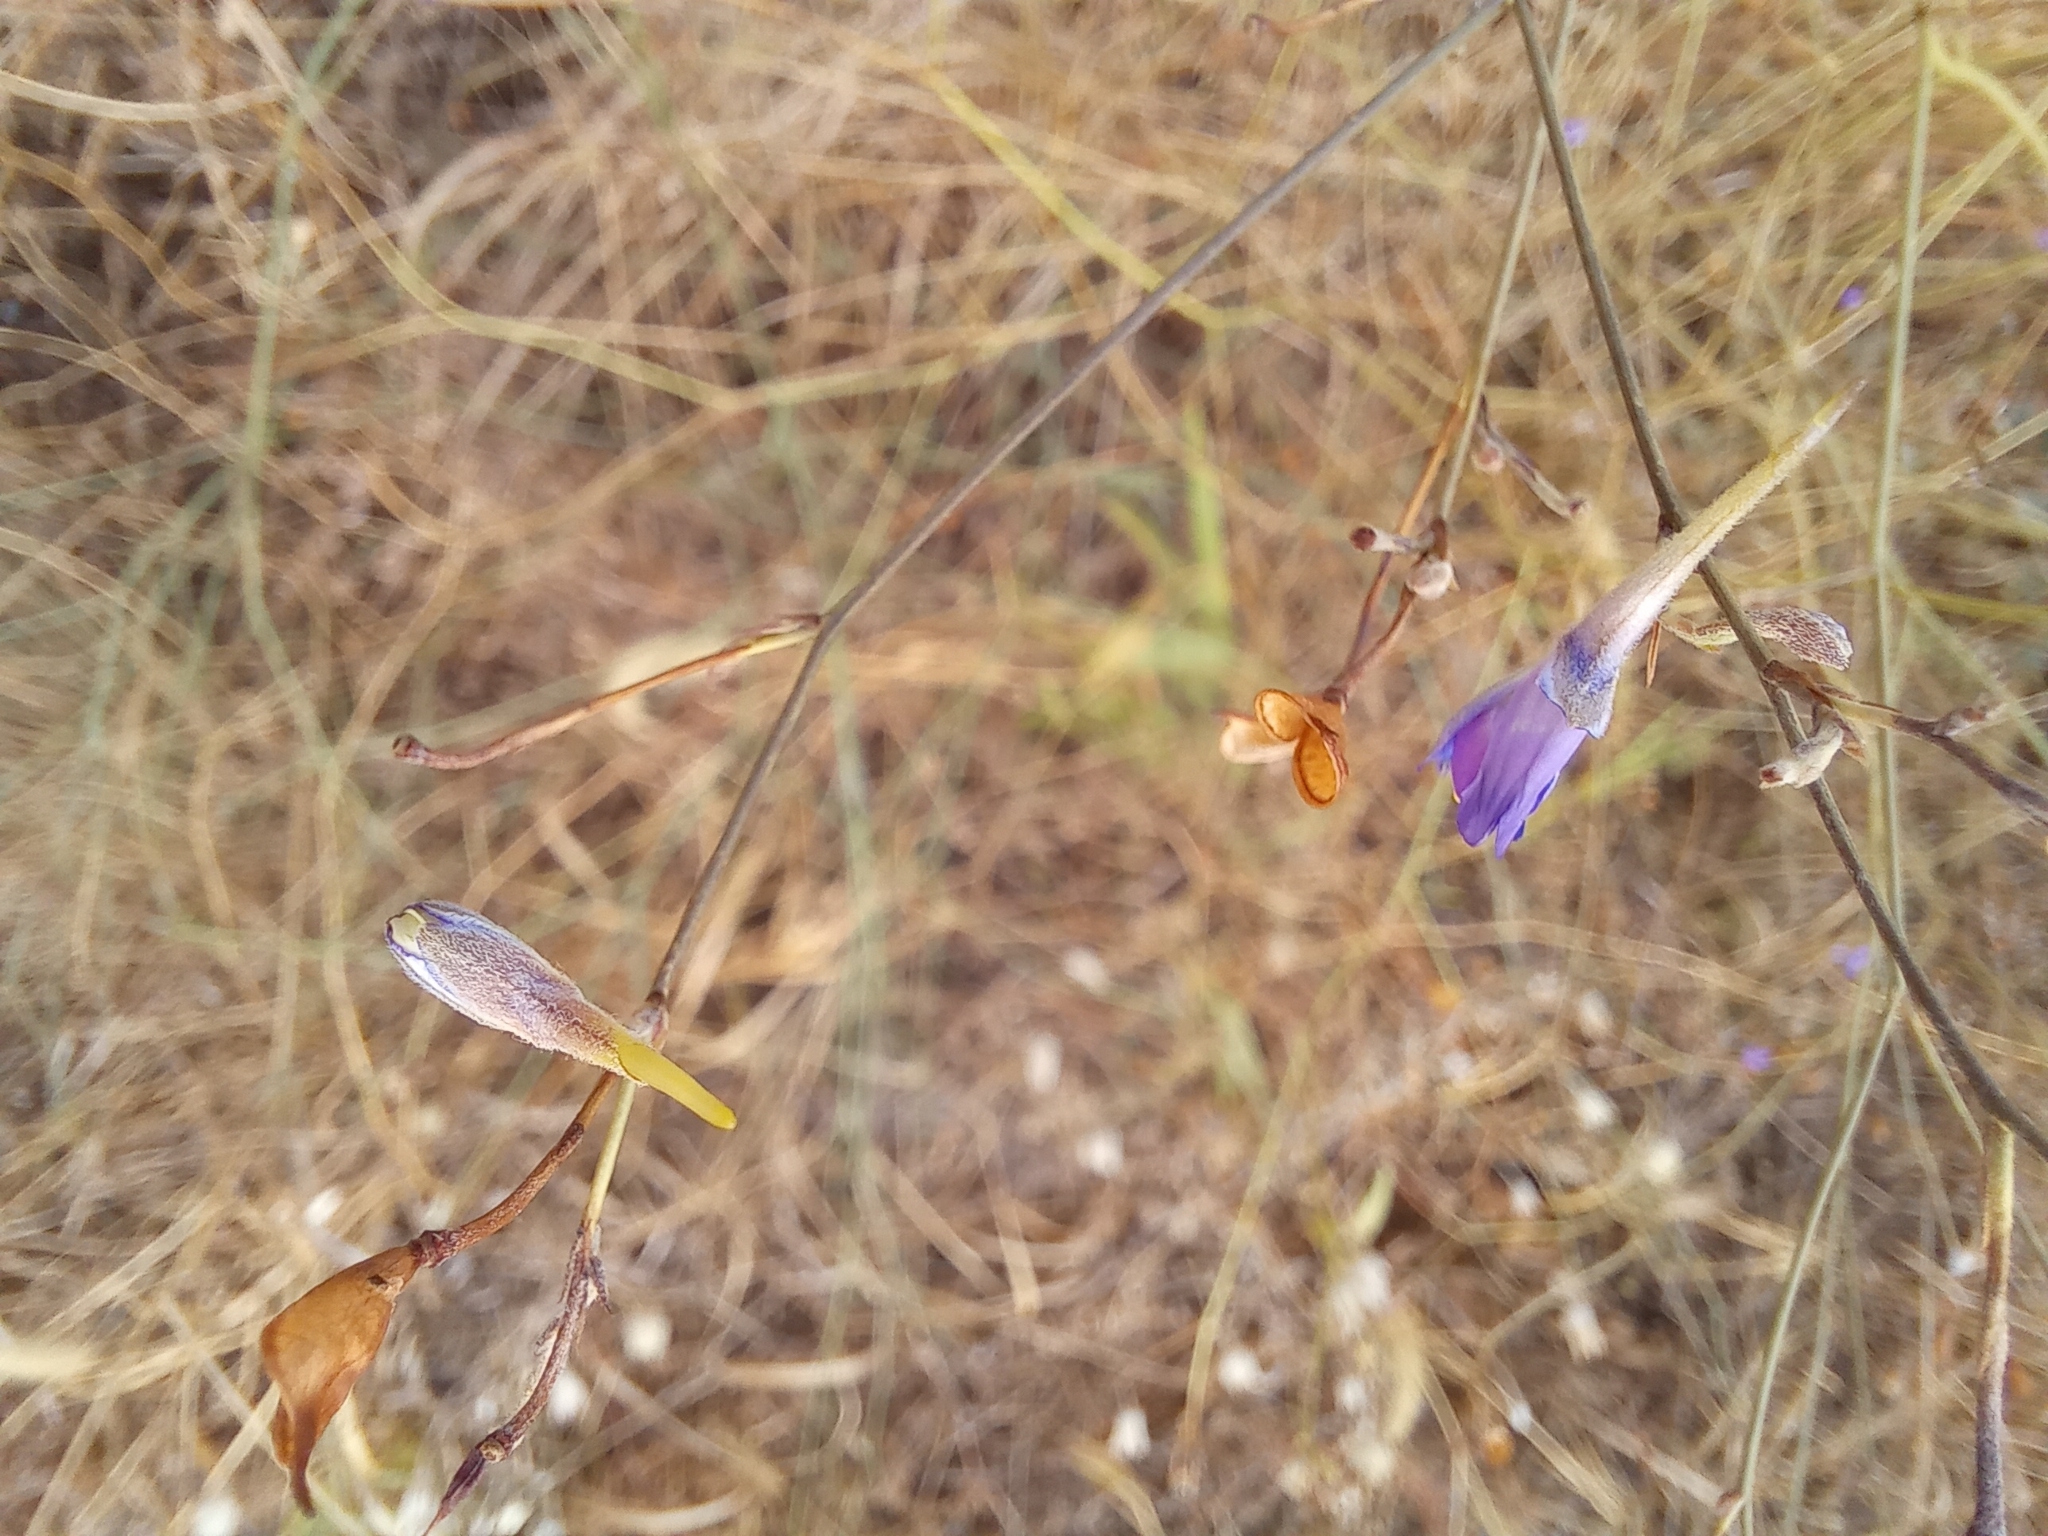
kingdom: Plantae
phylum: Tracheophyta
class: Magnoliopsida
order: Ranunculales
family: Ranunculaceae
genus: Delphinium
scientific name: Delphinium consolida
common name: Branching larkspur
